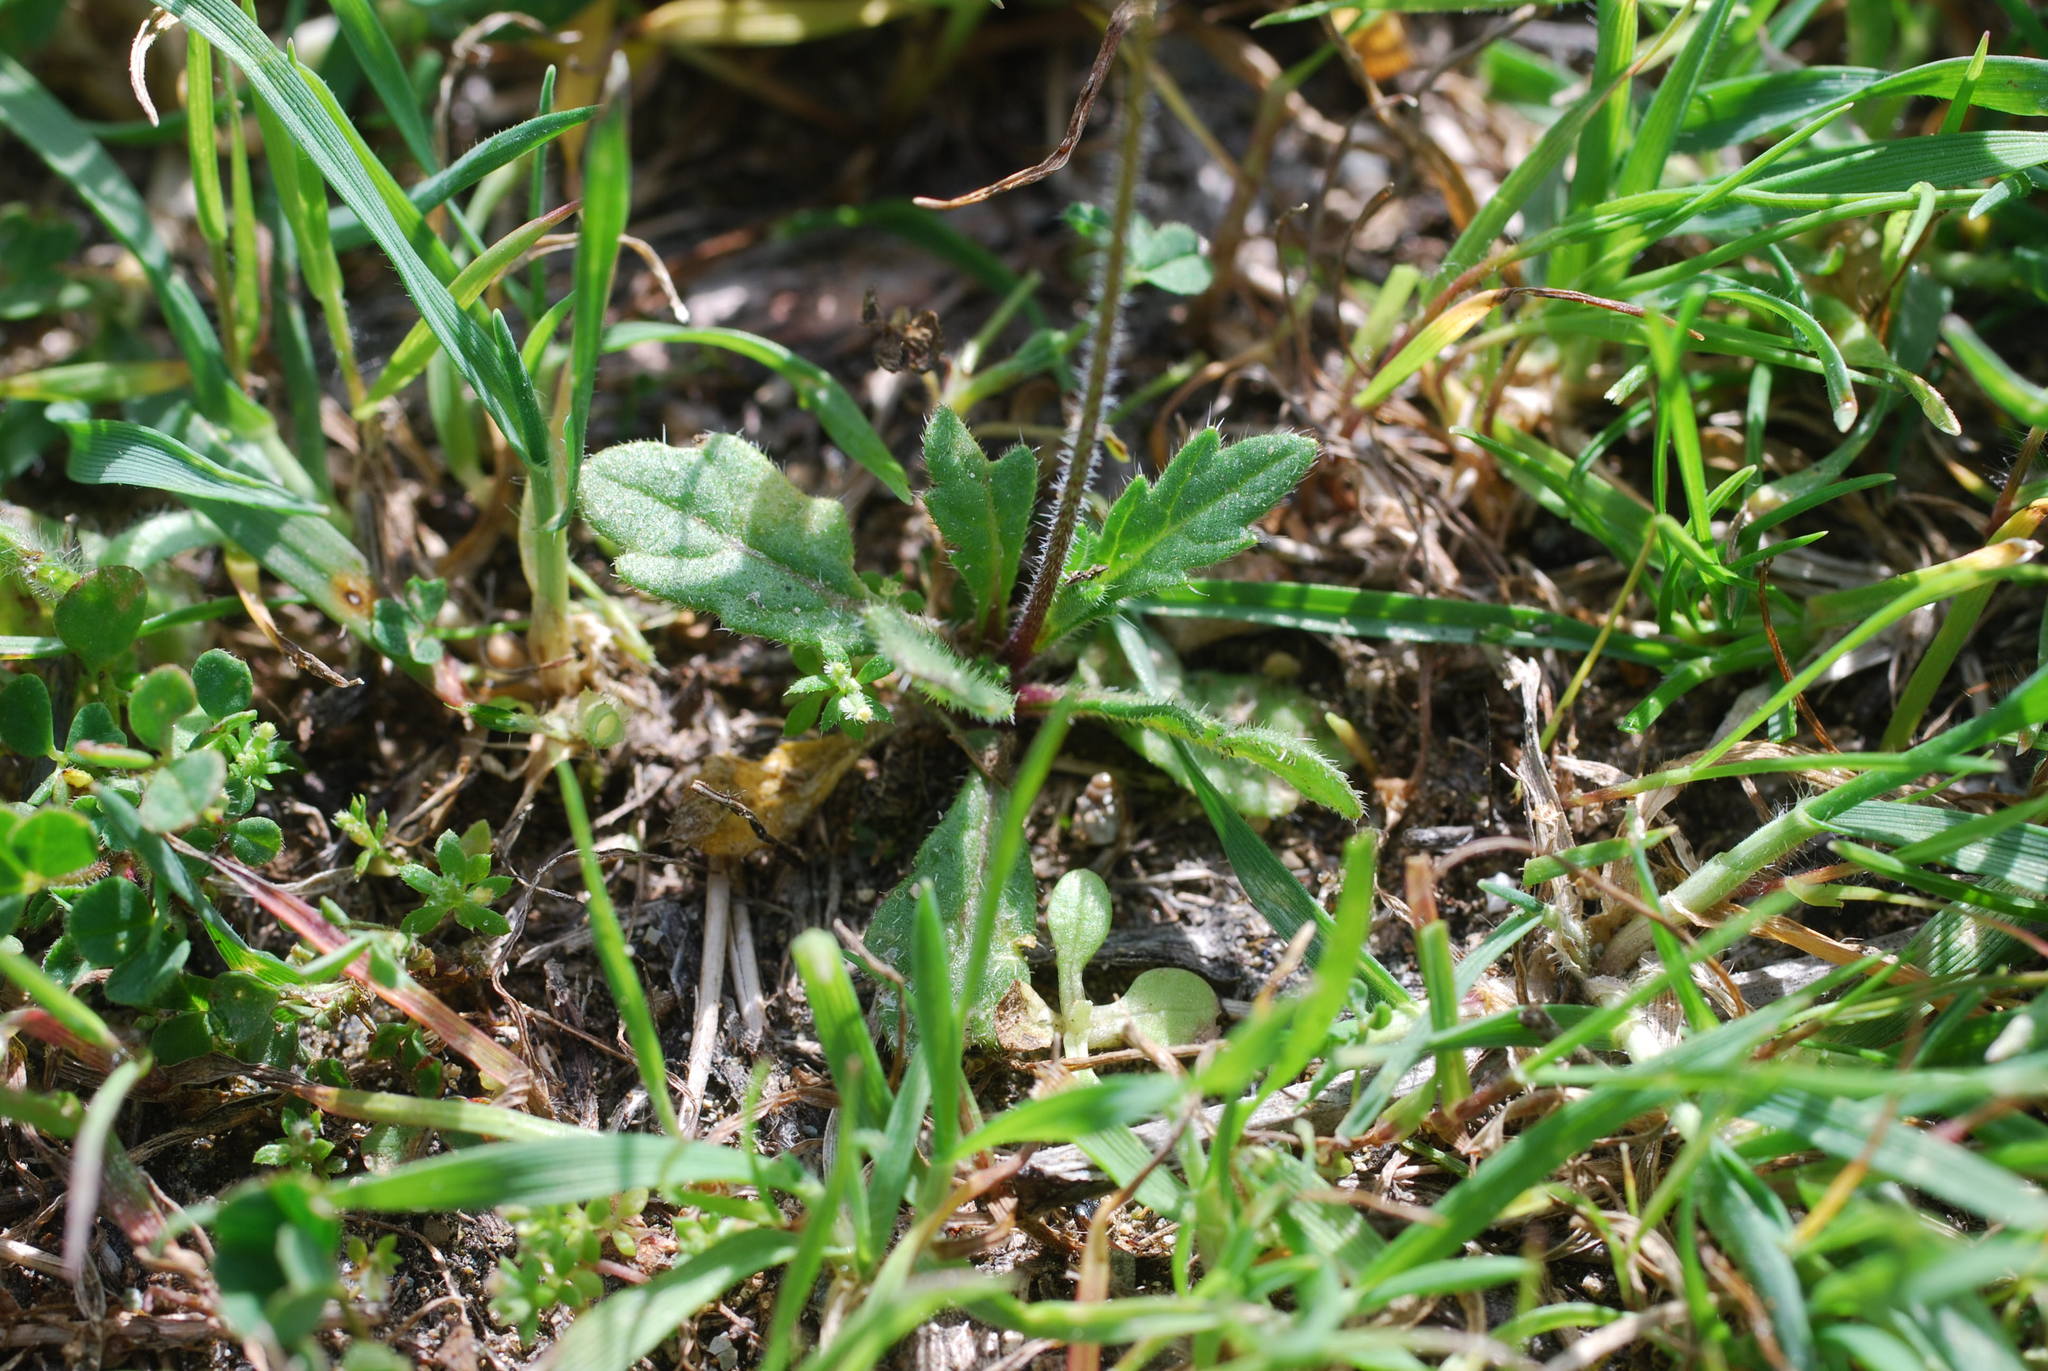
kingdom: Plantae
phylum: Tracheophyta
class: Magnoliopsida
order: Brassicales
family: Brassicaceae
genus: Biscutella
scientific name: Biscutella didyma
